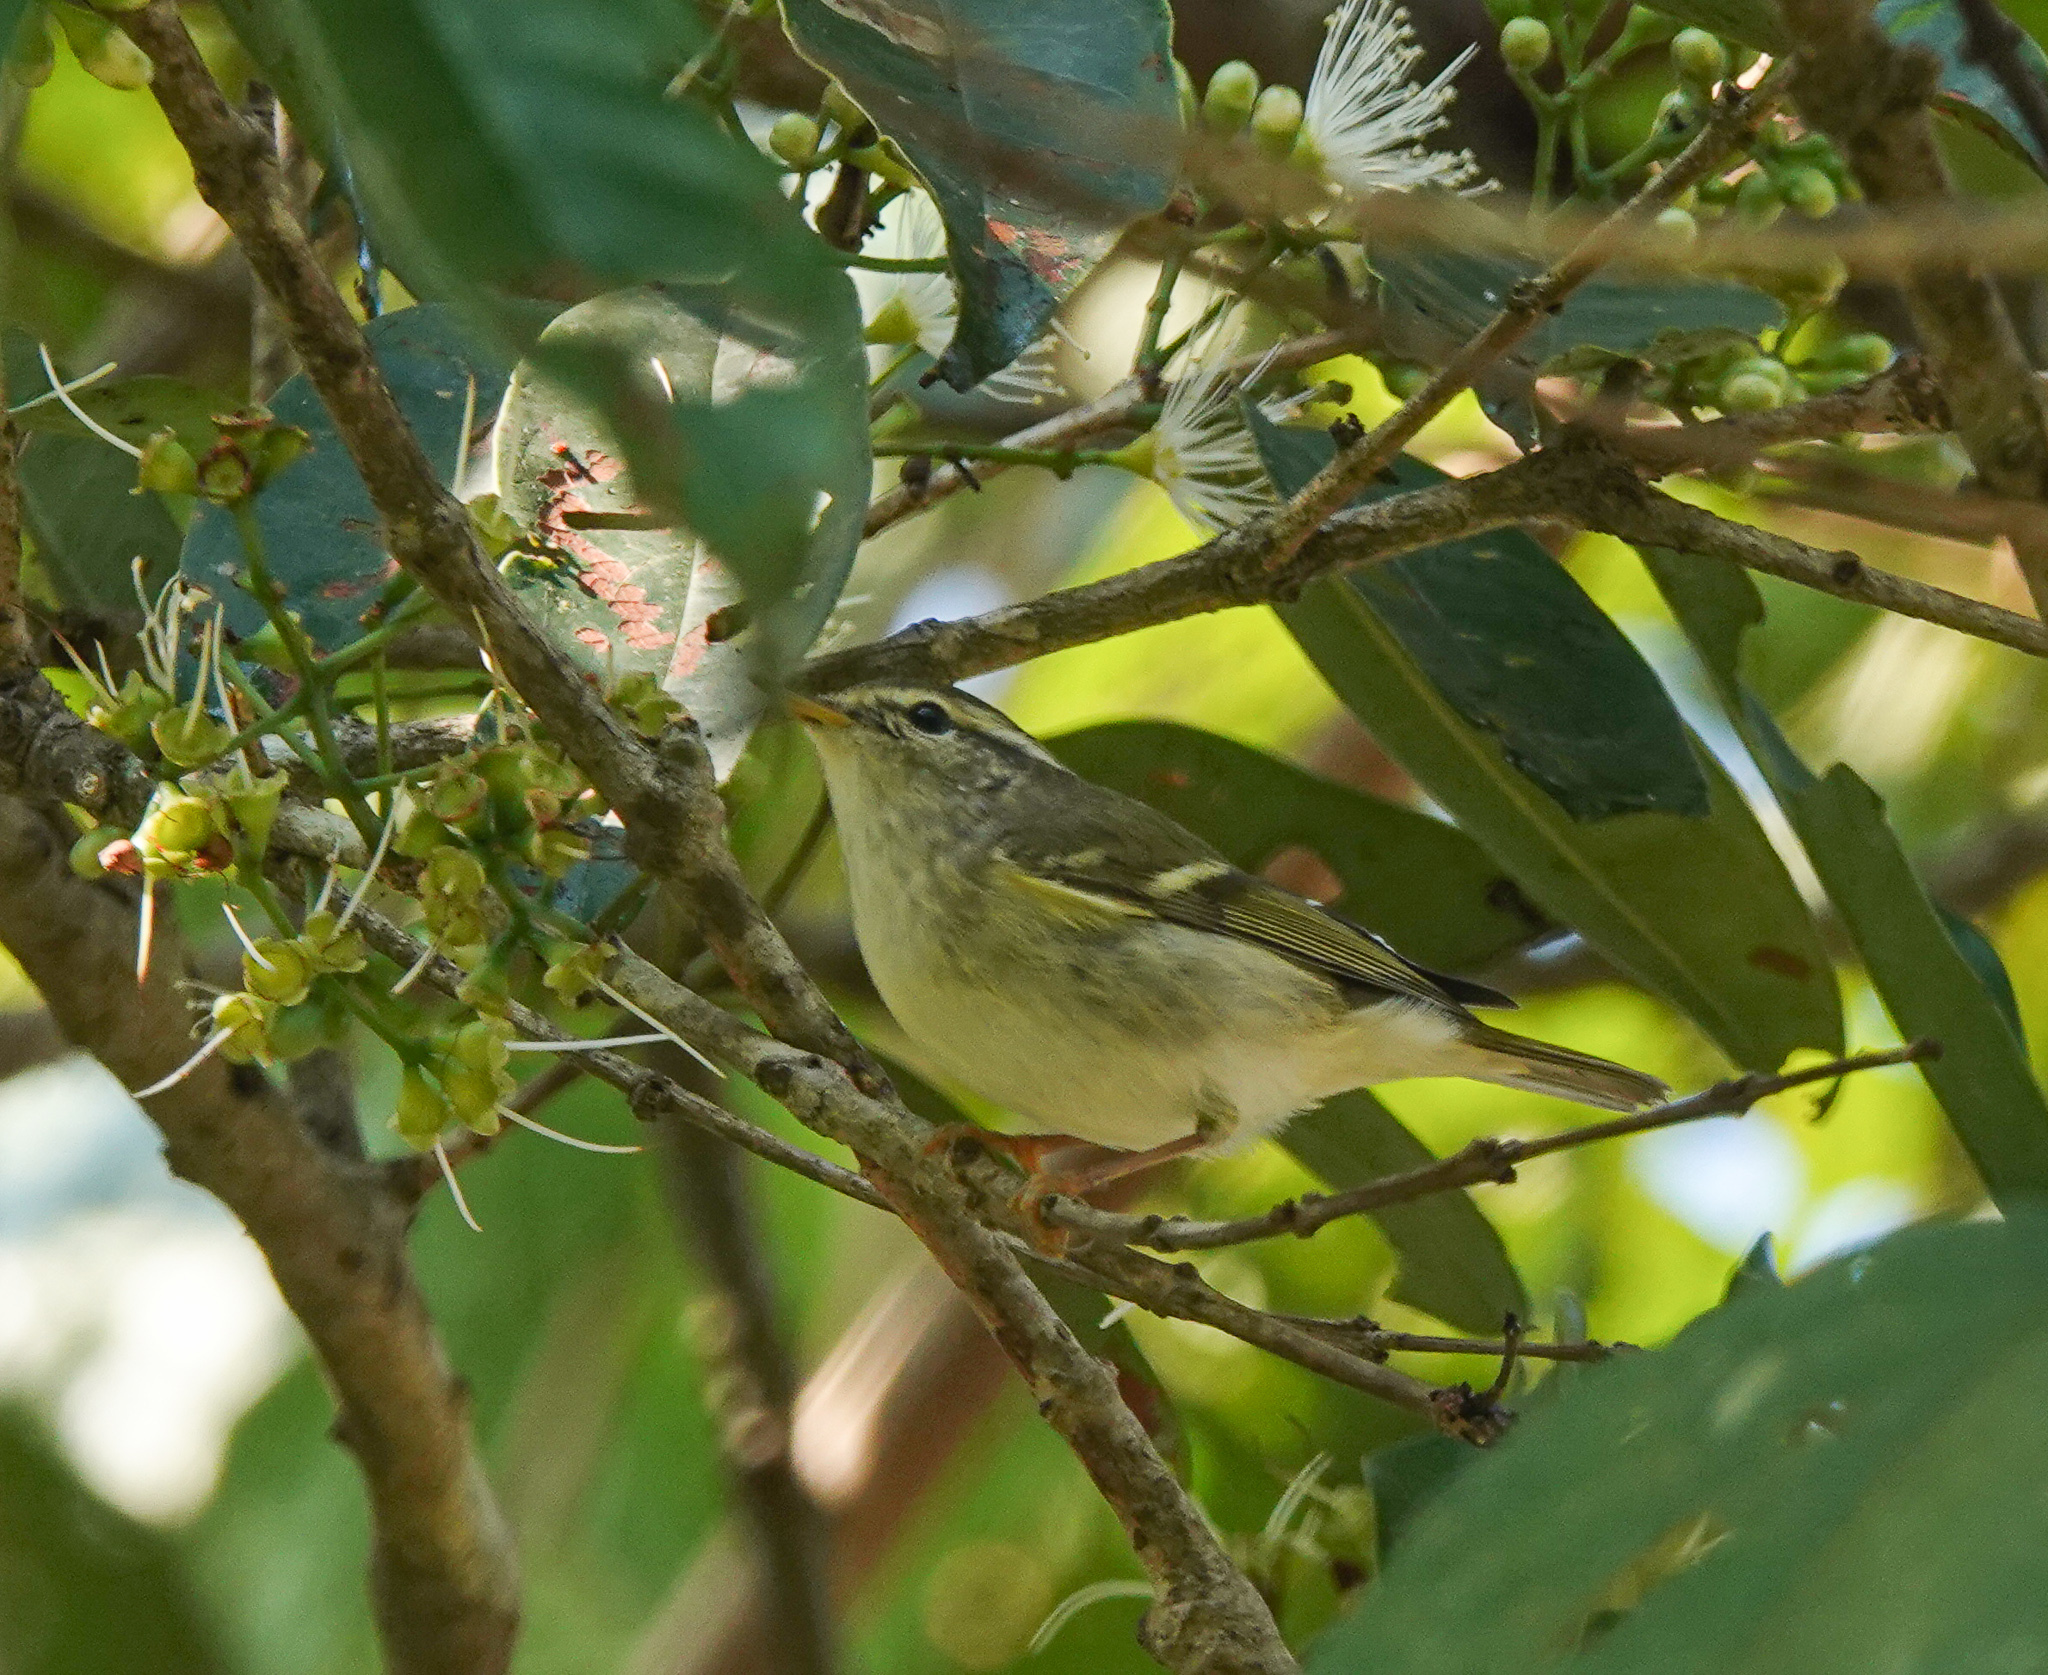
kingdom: Animalia
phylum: Chordata
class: Aves
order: Passeriformes
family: Phylloscopidae
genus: Phylloscopus
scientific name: Phylloscopus inornatus
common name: Yellow-browed warbler
